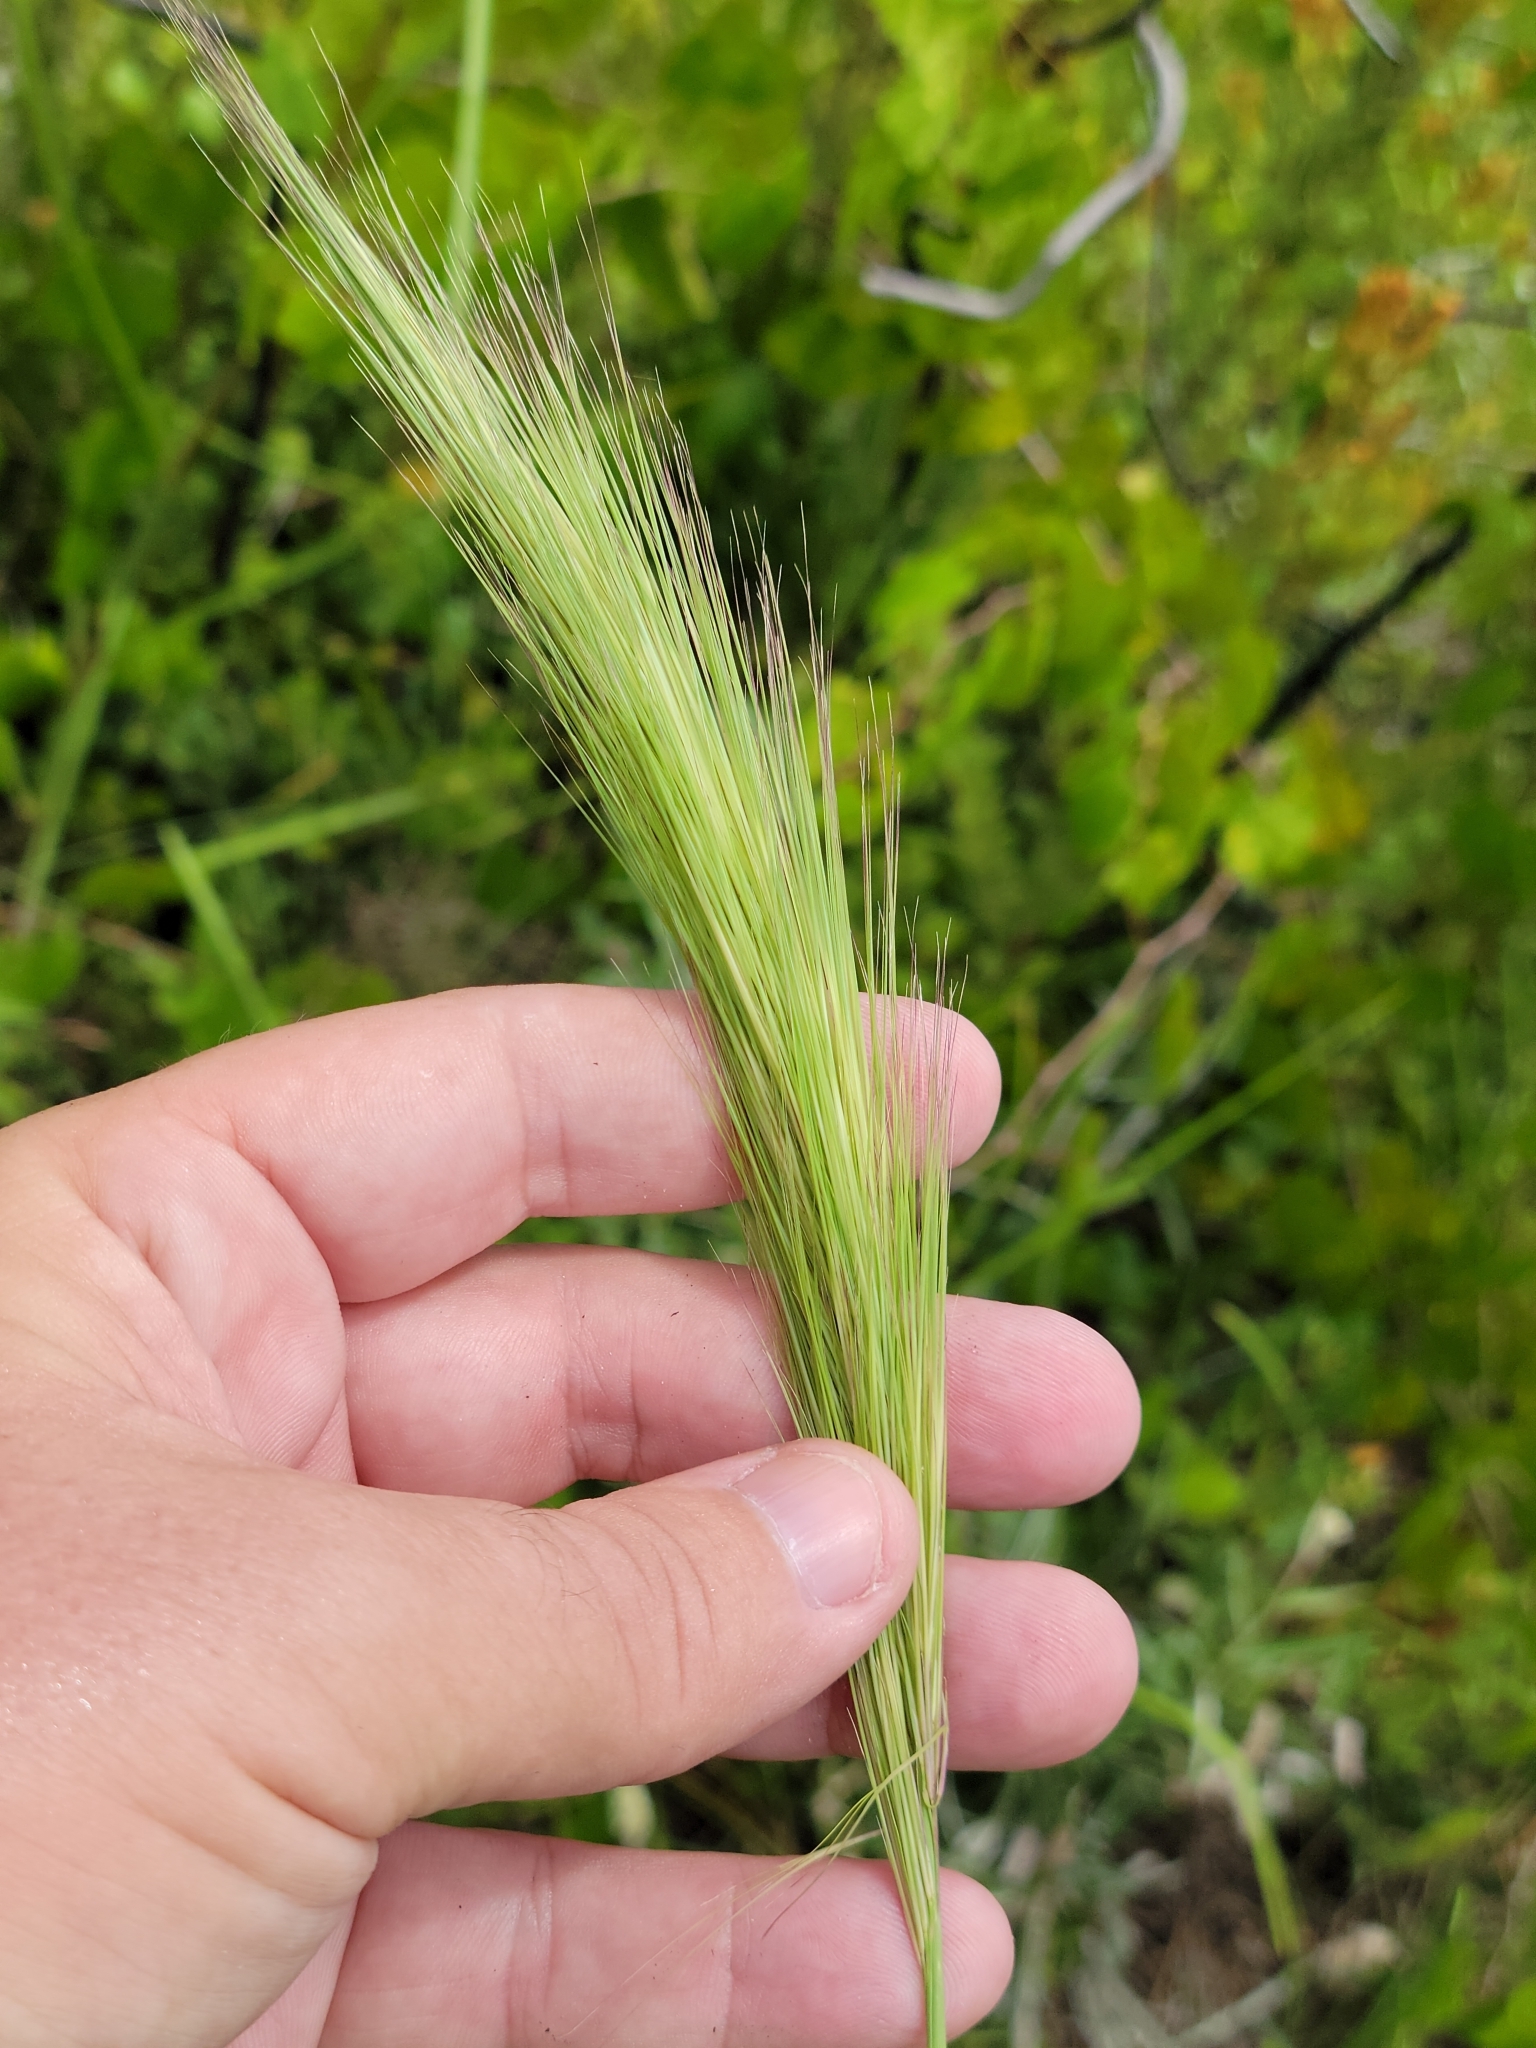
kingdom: Plantae
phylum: Tracheophyta
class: Liliopsida
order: Poales
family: Poaceae
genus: Aristida
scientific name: Aristida spiciformis
